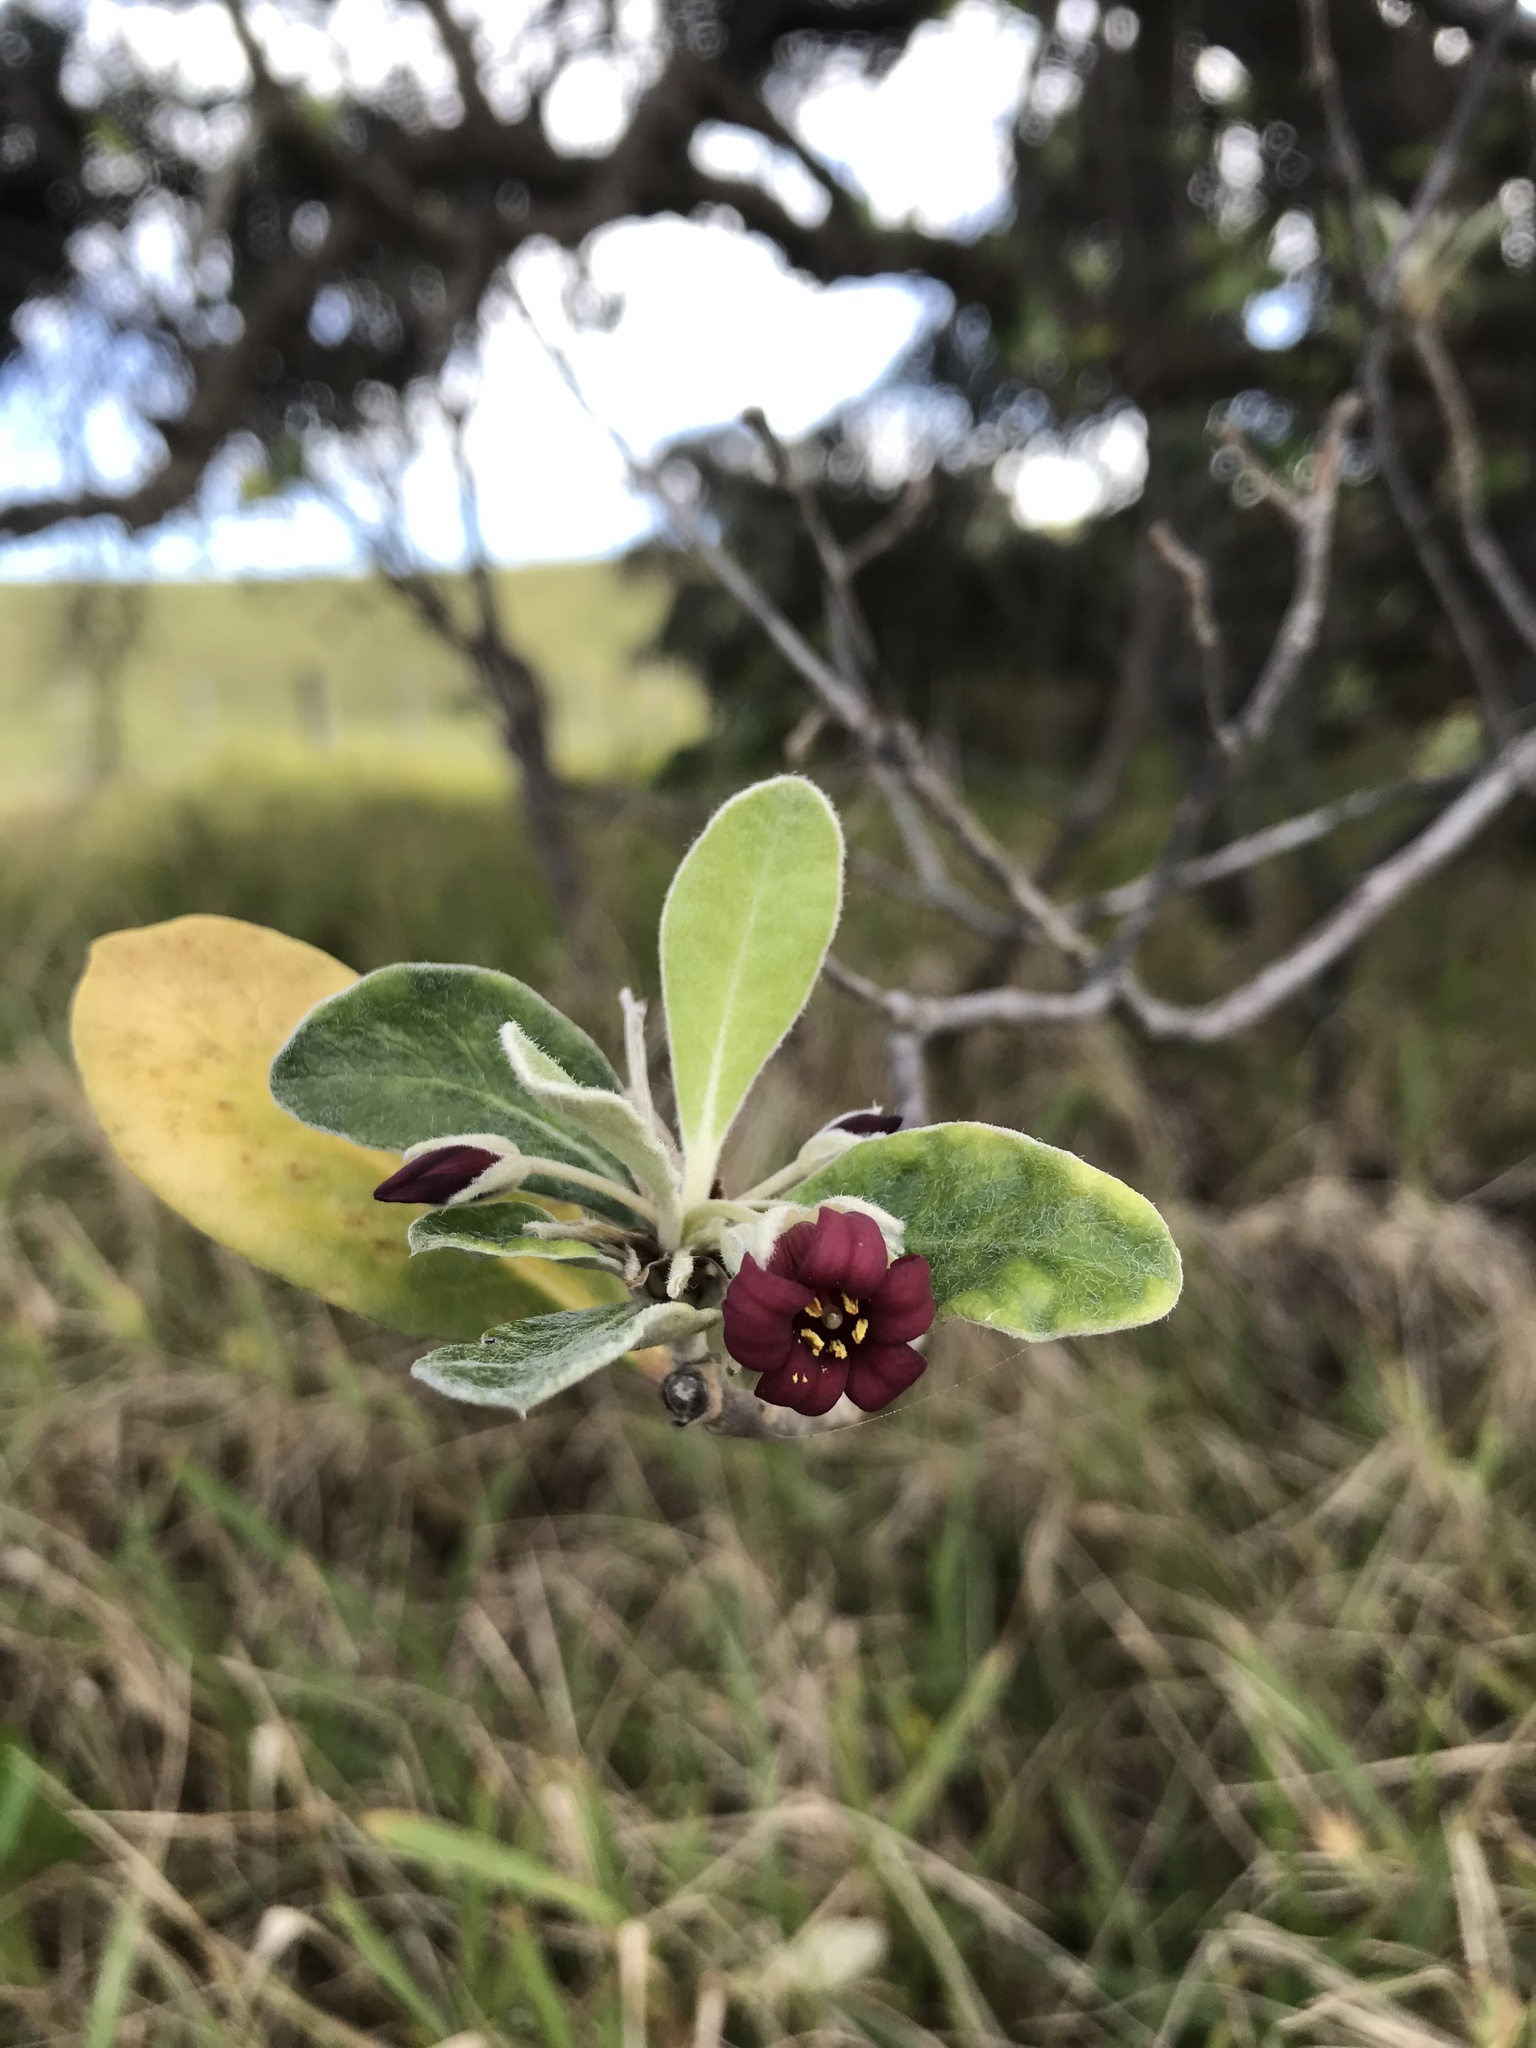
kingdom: Plantae
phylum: Tracheophyta
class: Magnoliopsida
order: Apiales
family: Pittosporaceae
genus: Pittosporum
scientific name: Pittosporum crassifolium
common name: Karo
